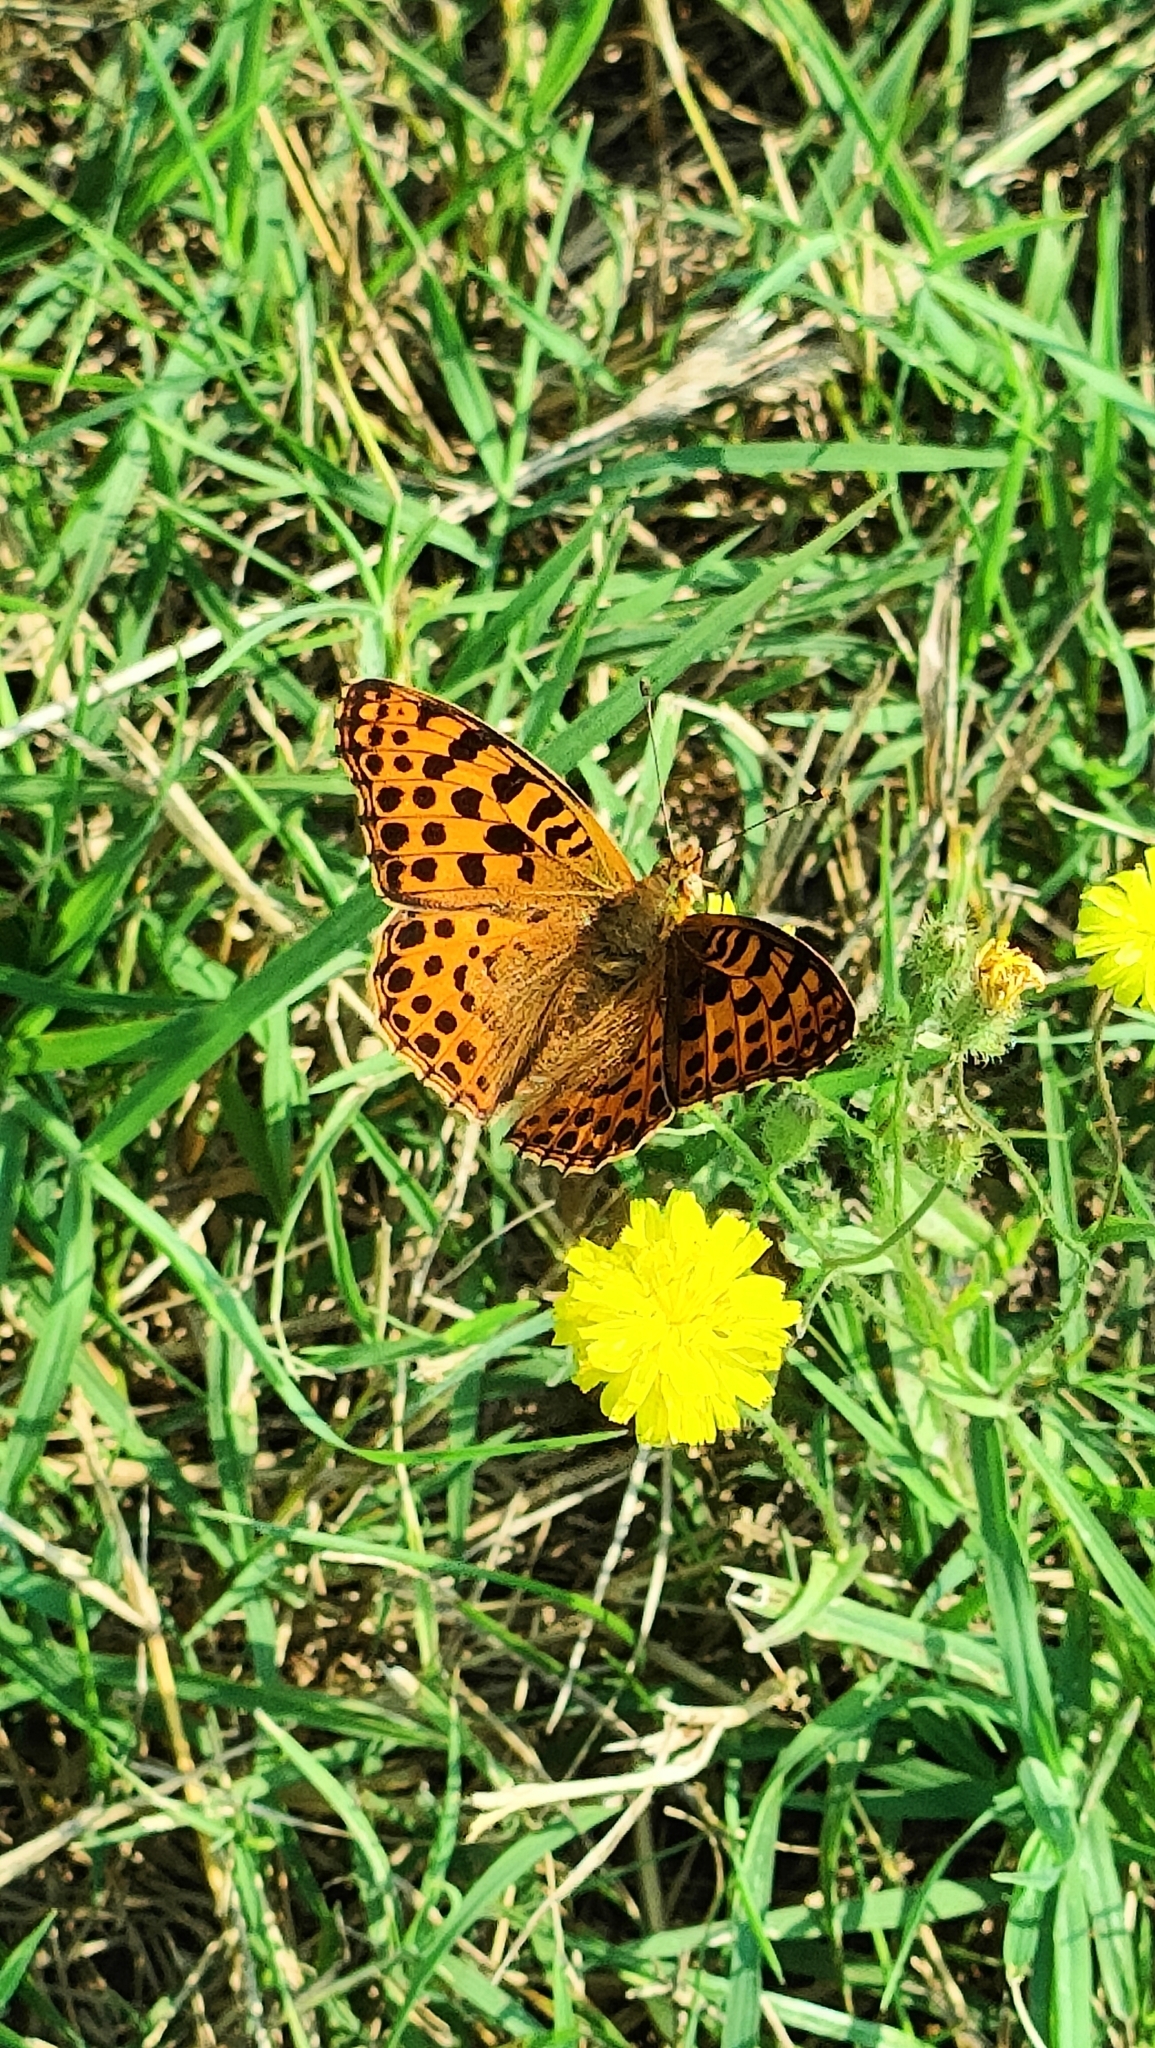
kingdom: Animalia
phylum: Arthropoda
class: Insecta
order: Lepidoptera
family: Nymphalidae
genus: Issoria
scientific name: Issoria lathonia
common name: Queen of spain fritillary
